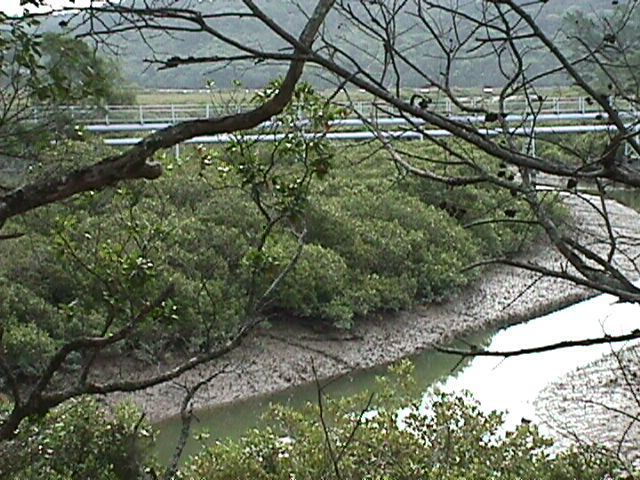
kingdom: Plantae
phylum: Tracheophyta
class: Magnoliopsida
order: Lamiales
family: Acanthaceae
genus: Avicennia
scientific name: Avicennia marina
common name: Gray mangrove
